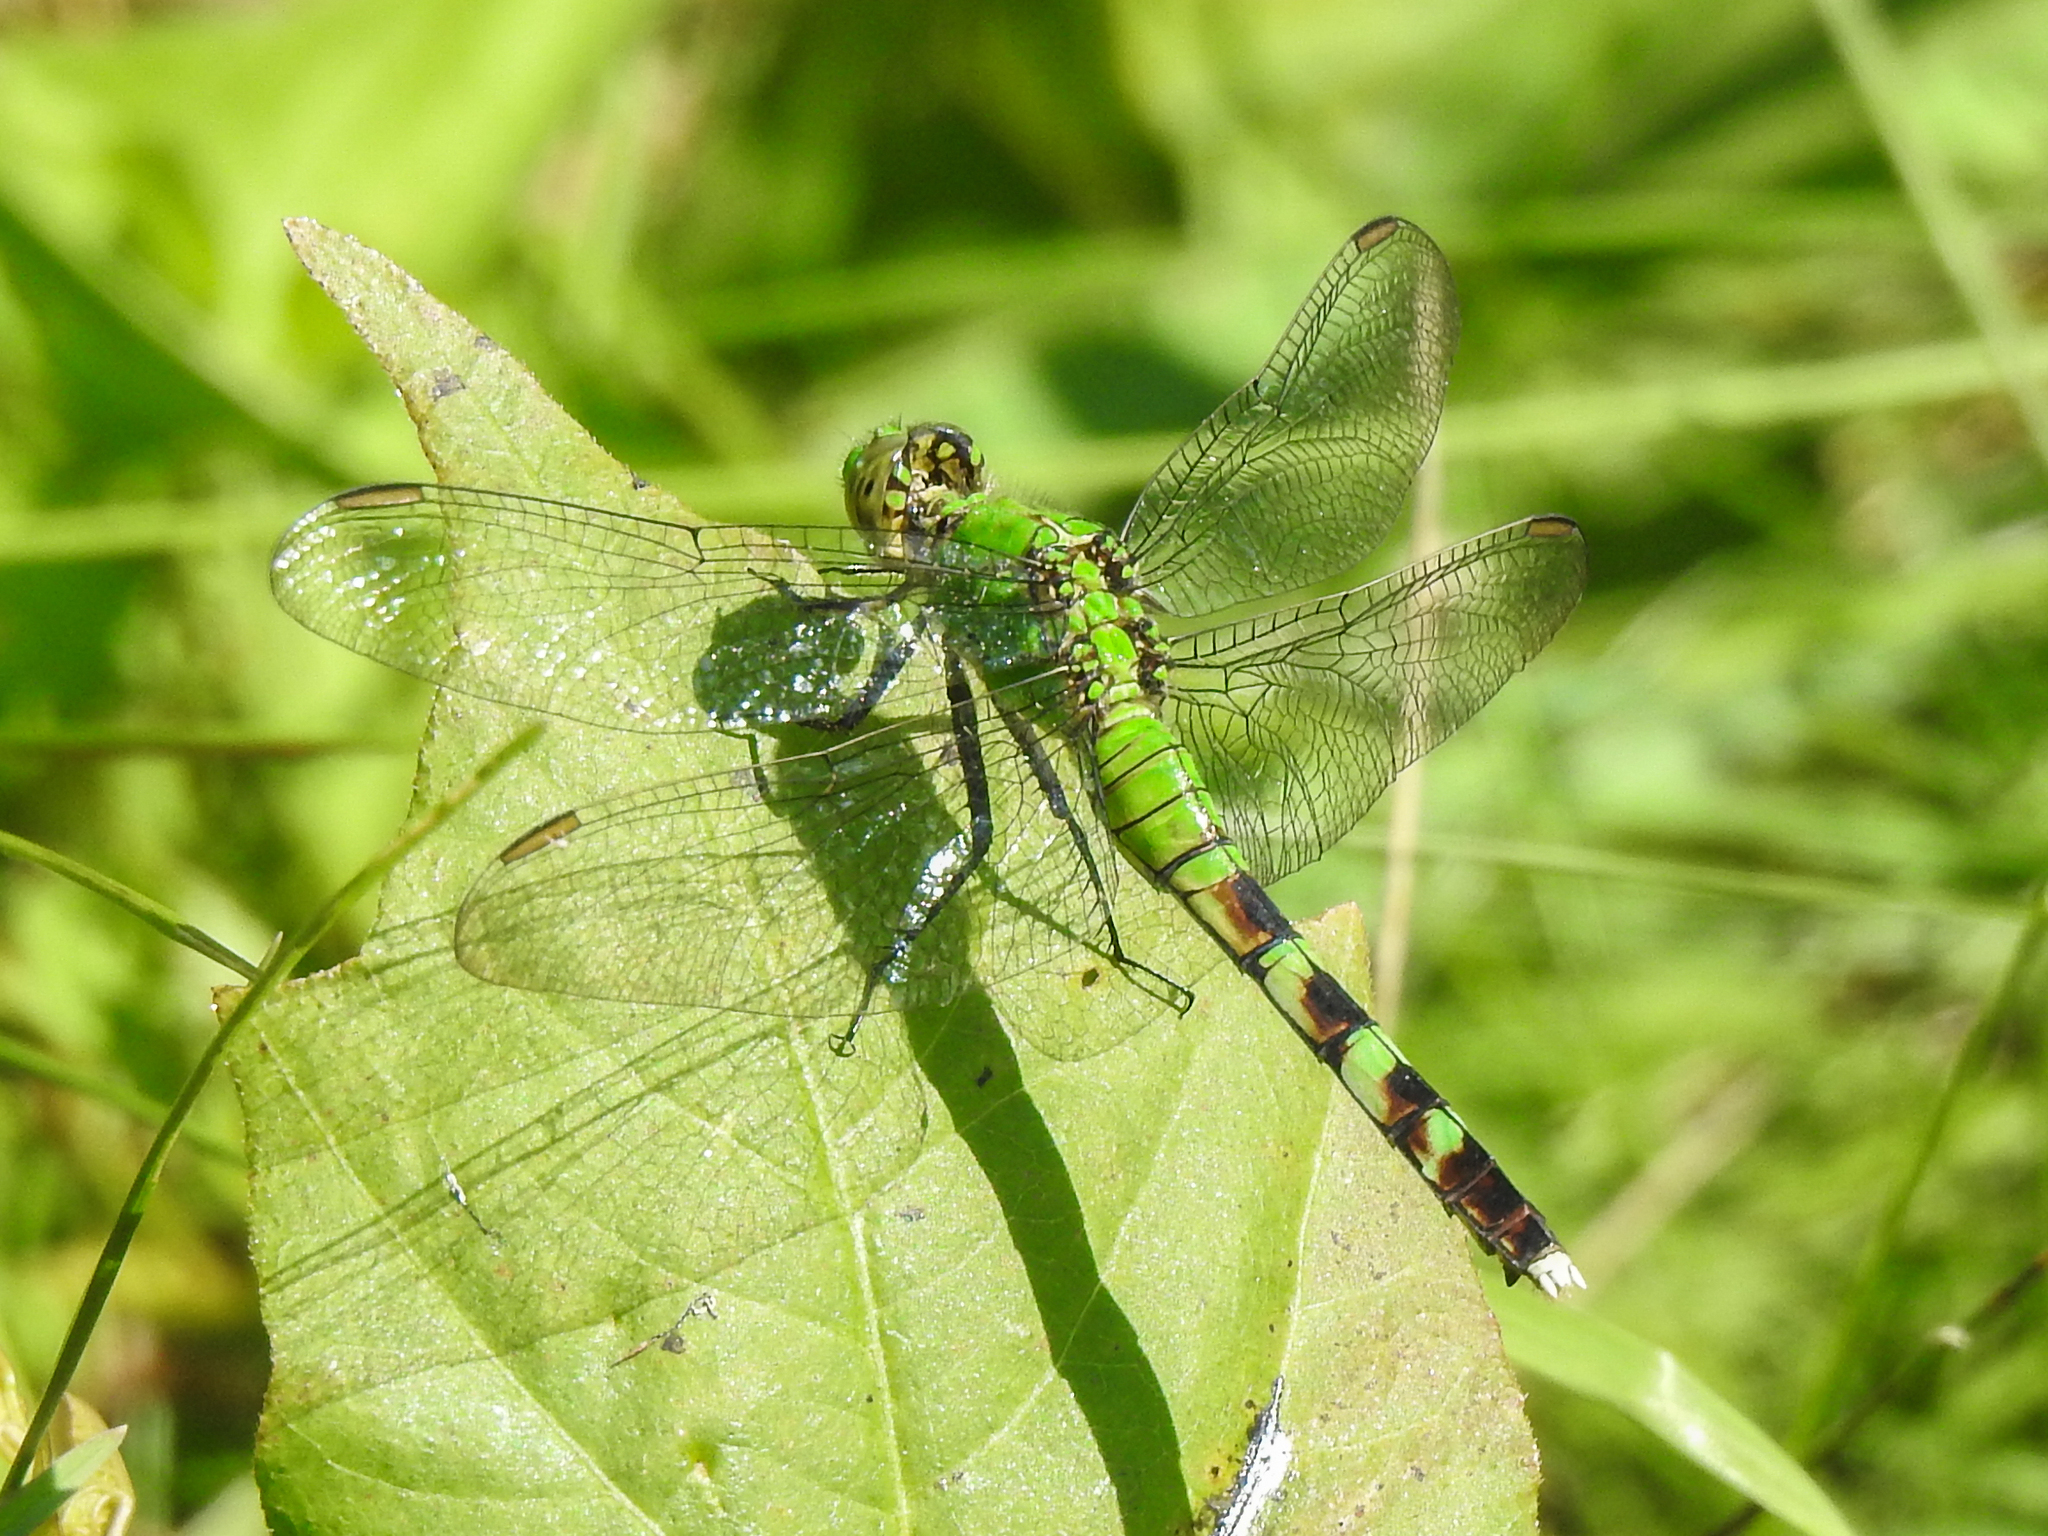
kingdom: Animalia
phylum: Arthropoda
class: Insecta
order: Odonata
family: Libellulidae
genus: Erythemis
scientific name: Erythemis simplicicollis
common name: Eastern pondhawk
